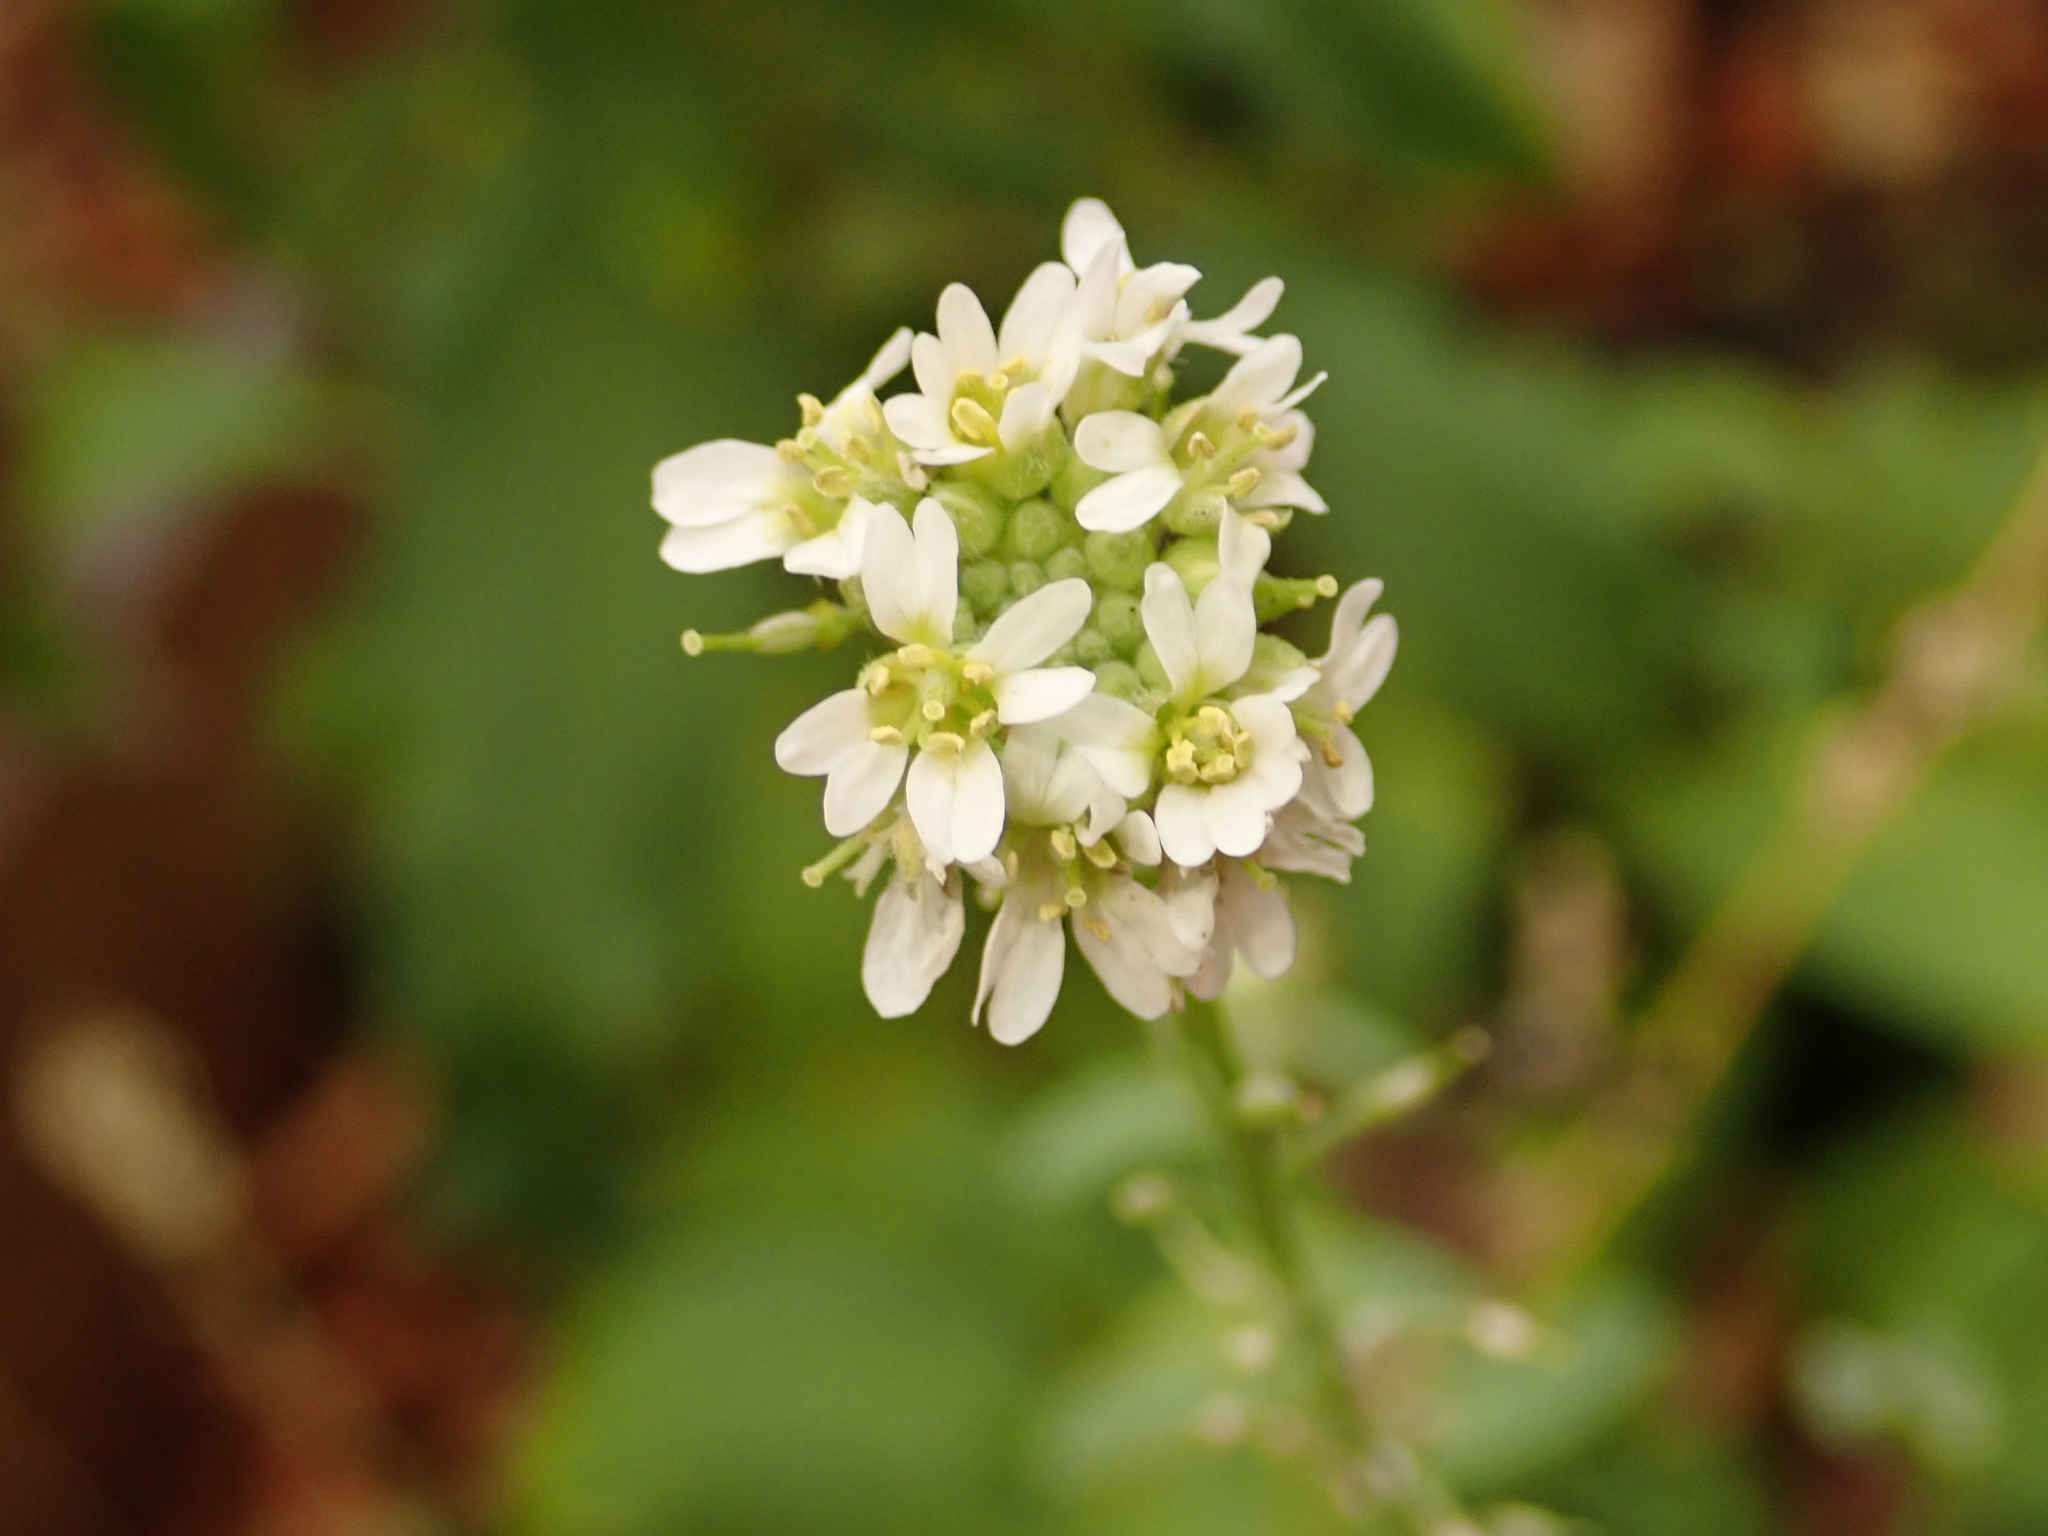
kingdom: Plantae
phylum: Tracheophyta
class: Magnoliopsida
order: Brassicales
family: Brassicaceae
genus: Berteroa
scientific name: Berteroa incana
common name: Hoary alison
